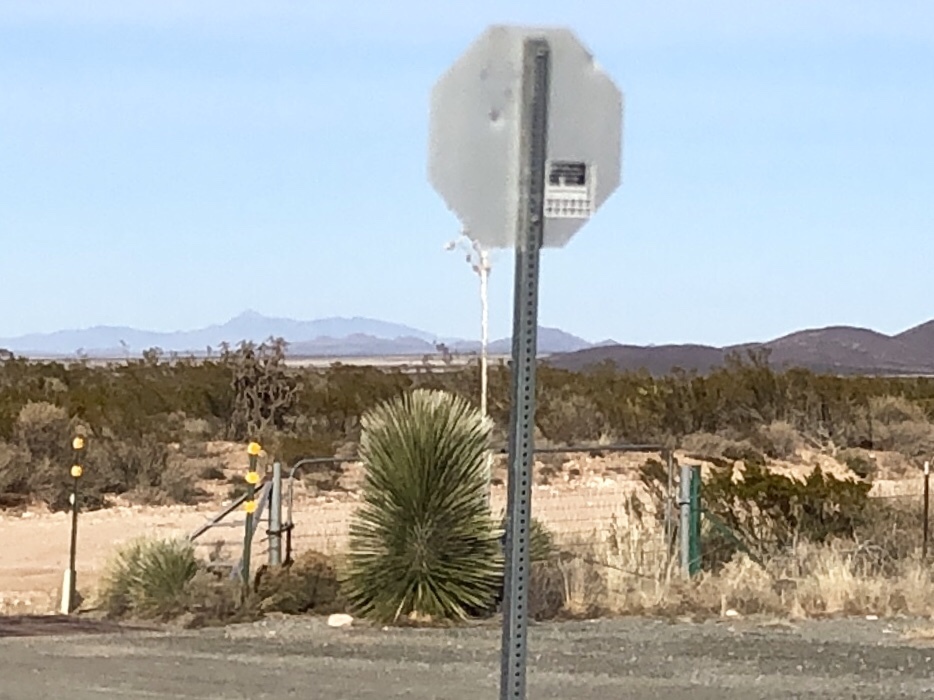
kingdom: Plantae
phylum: Tracheophyta
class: Liliopsida
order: Asparagales
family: Asparagaceae
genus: Yucca
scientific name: Yucca elata
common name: Palmella
